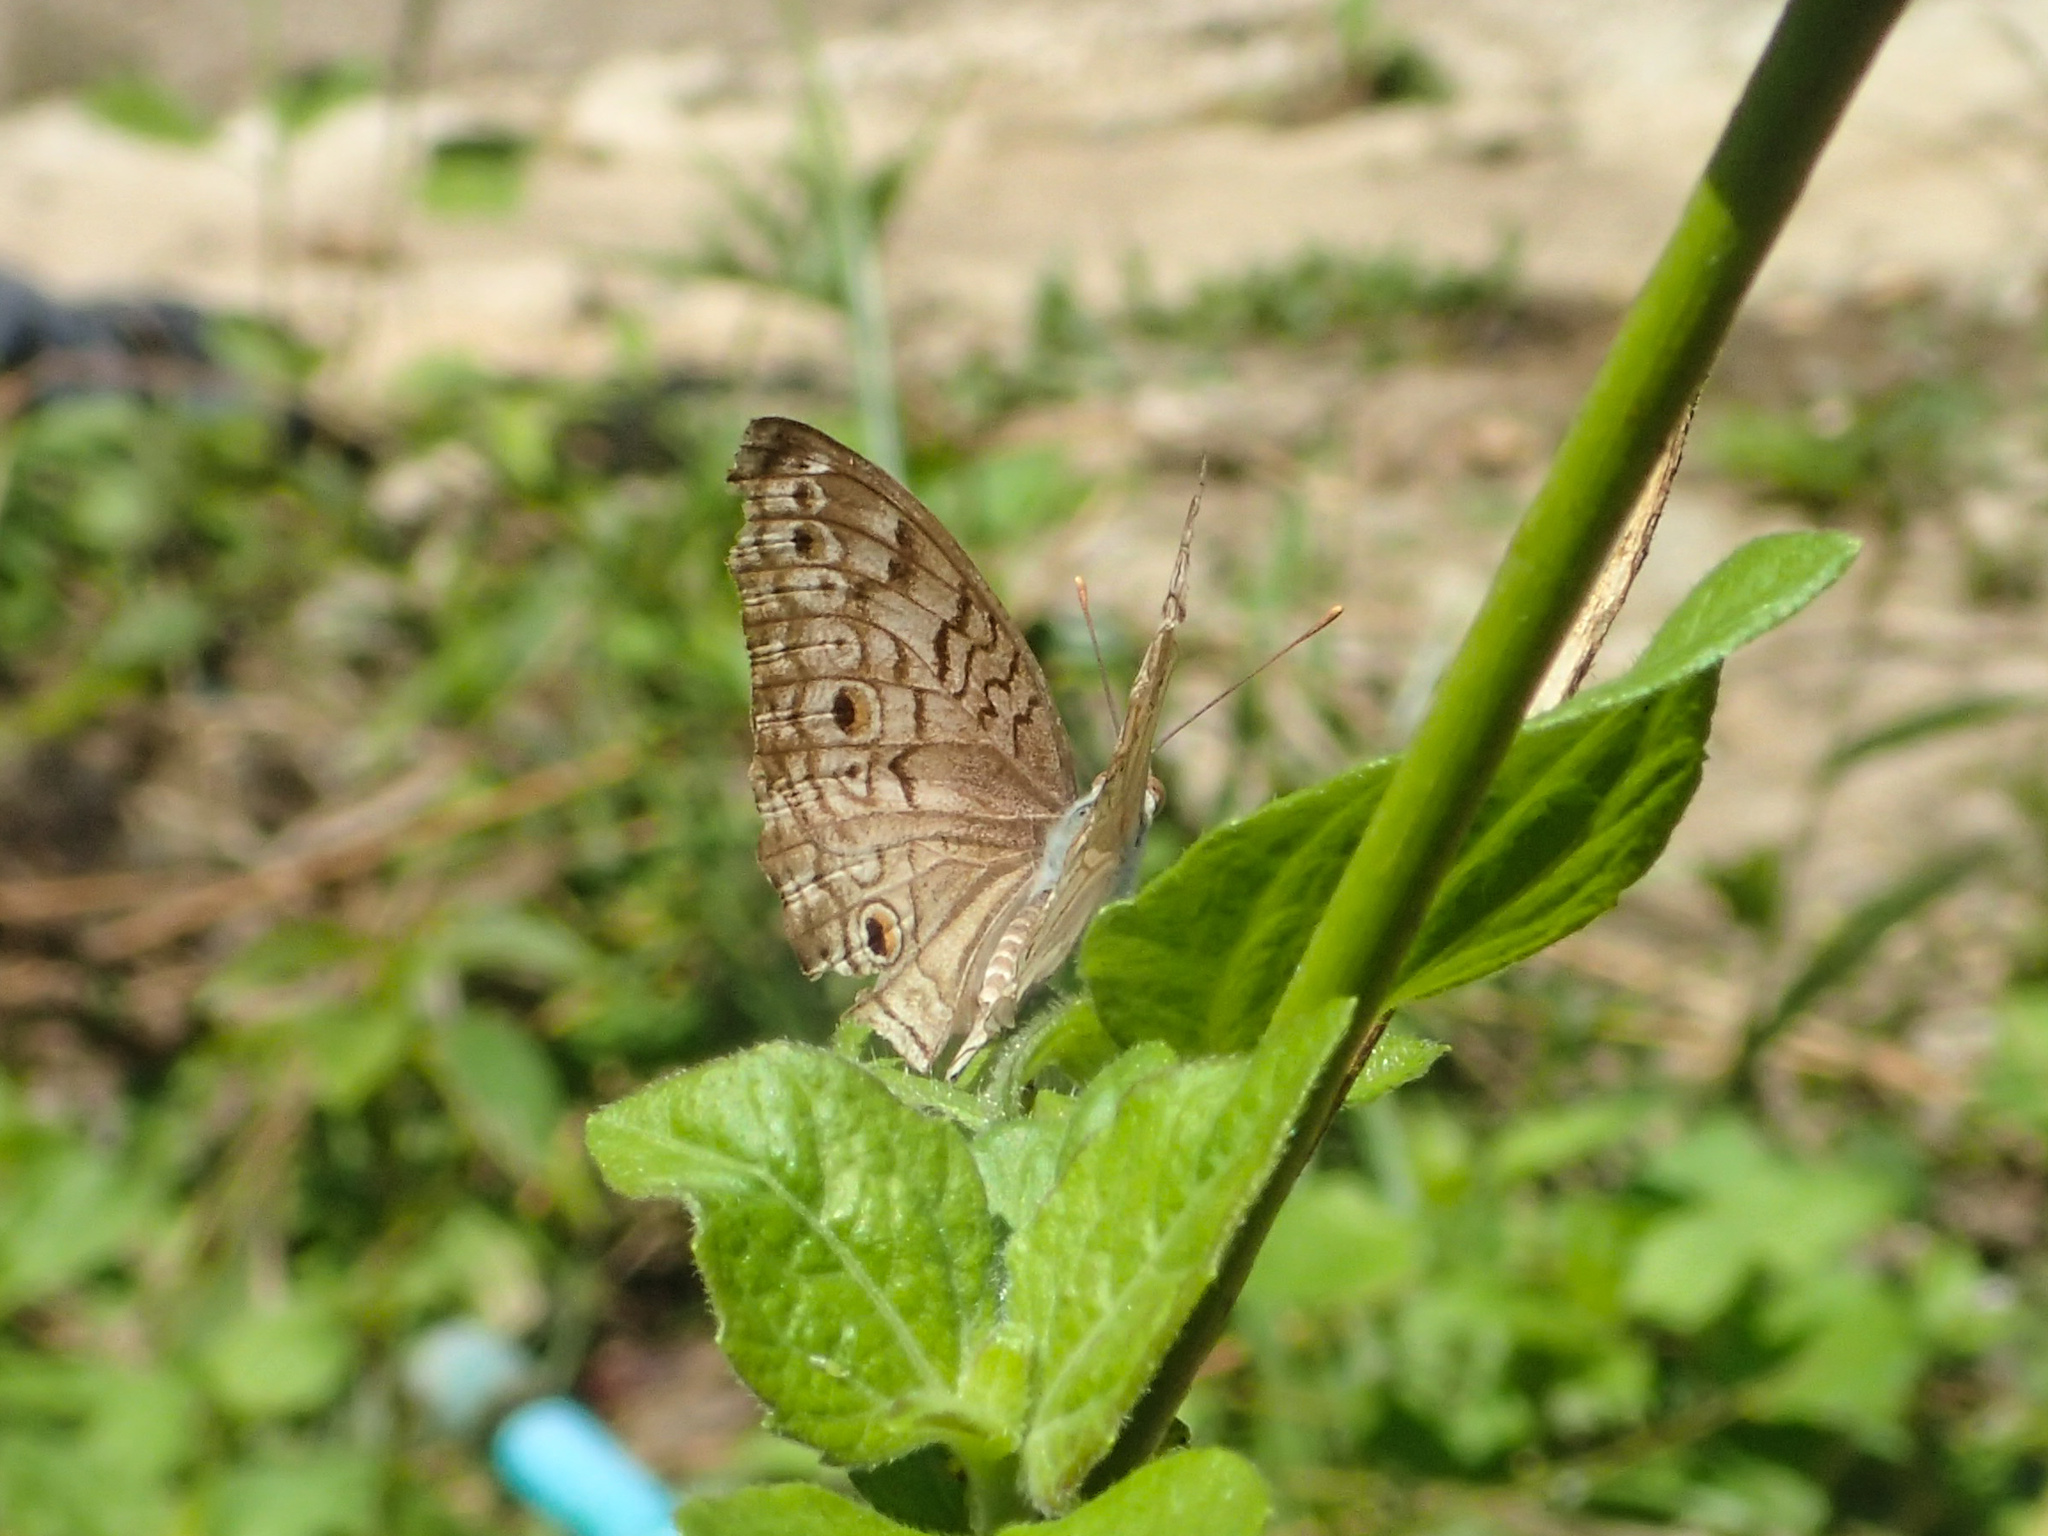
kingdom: Animalia
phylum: Arthropoda
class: Insecta
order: Lepidoptera
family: Nymphalidae
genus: Junonia
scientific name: Junonia atlites
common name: Grey pansy
